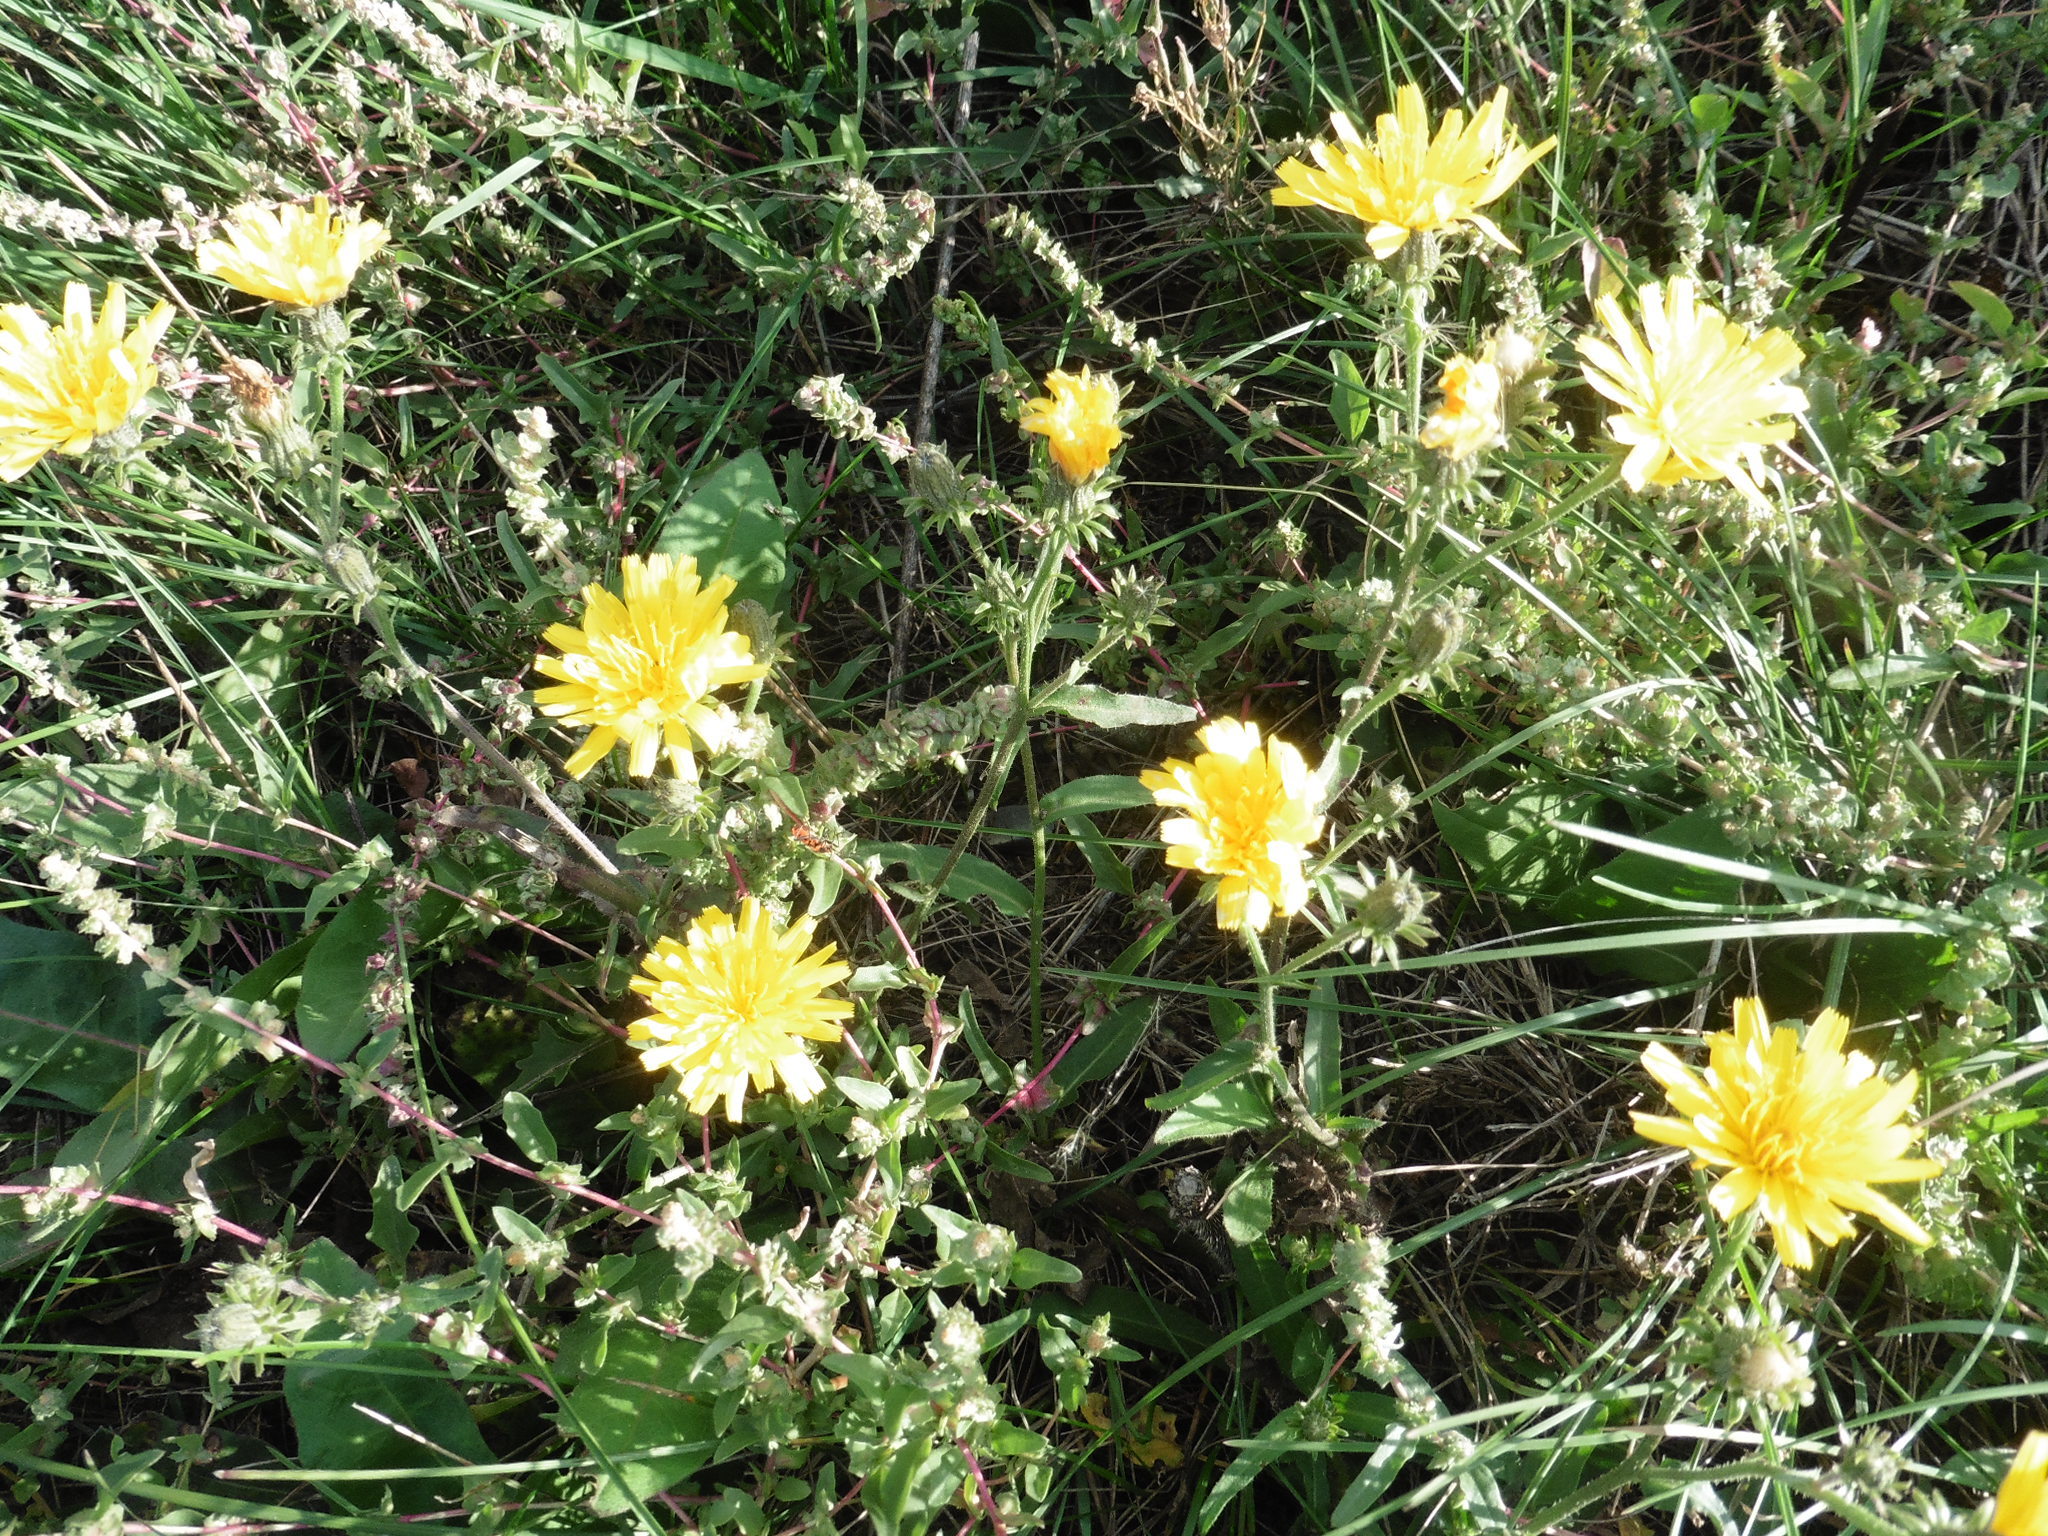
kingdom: Plantae
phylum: Tracheophyta
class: Magnoliopsida
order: Asterales
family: Asteraceae
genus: Picris
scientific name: Picris hieracioides
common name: Hawkweed oxtongue
